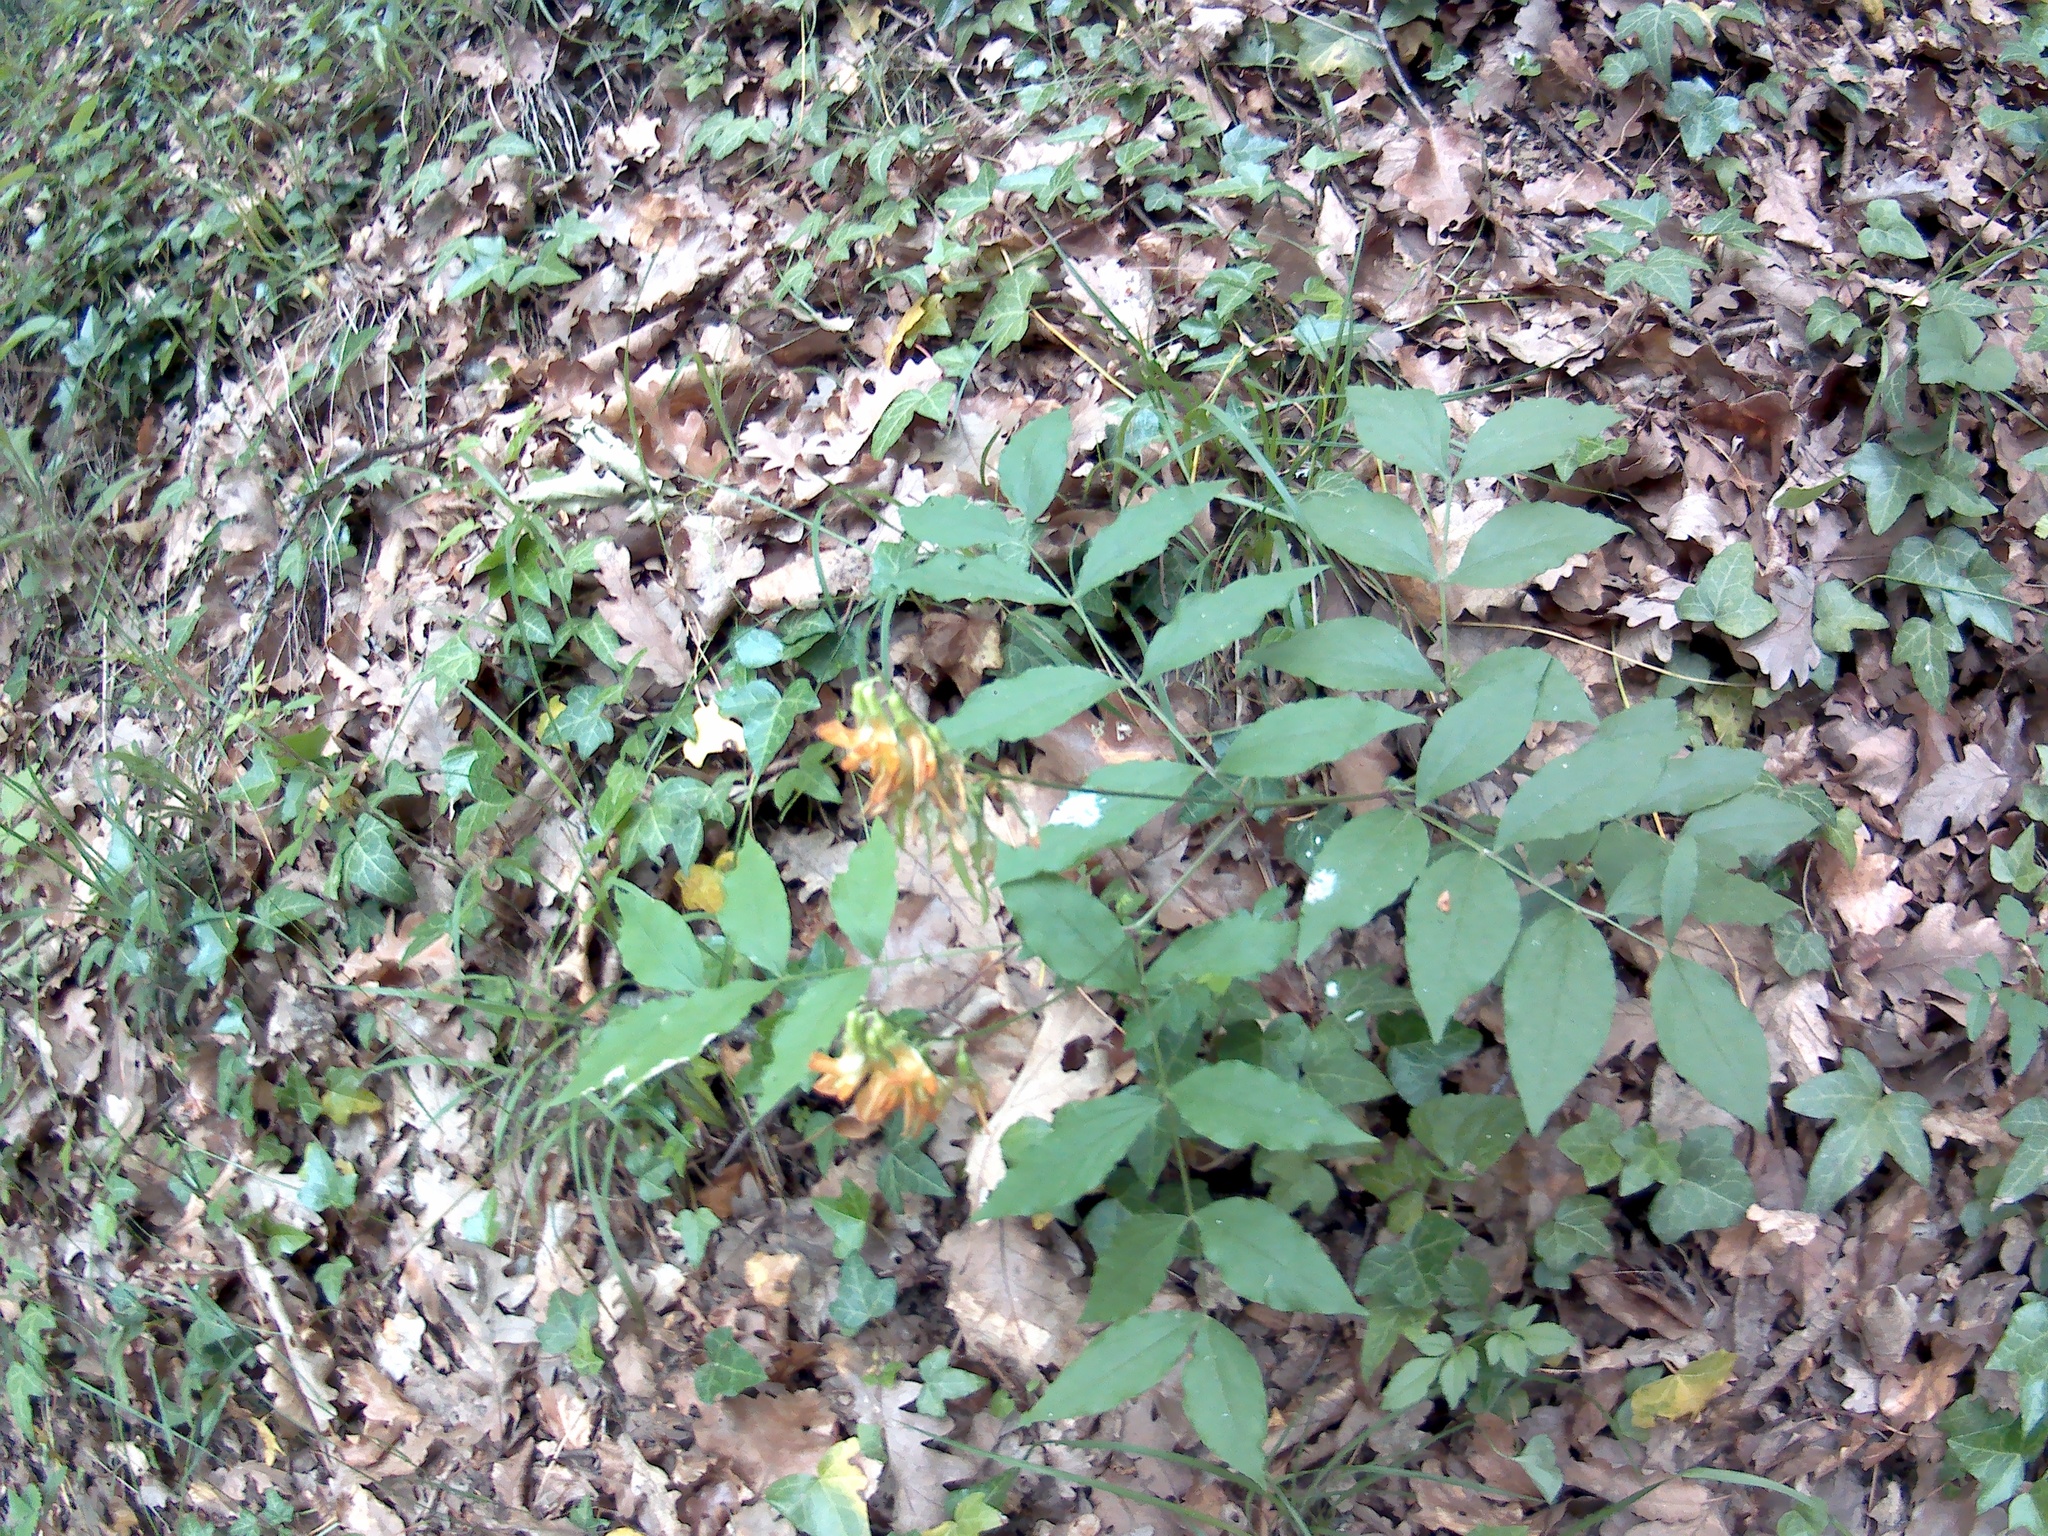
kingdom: Plantae
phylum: Tracheophyta
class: Magnoliopsida
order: Fabales
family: Fabaceae
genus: Lathyrus
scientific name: Lathyrus aureus
